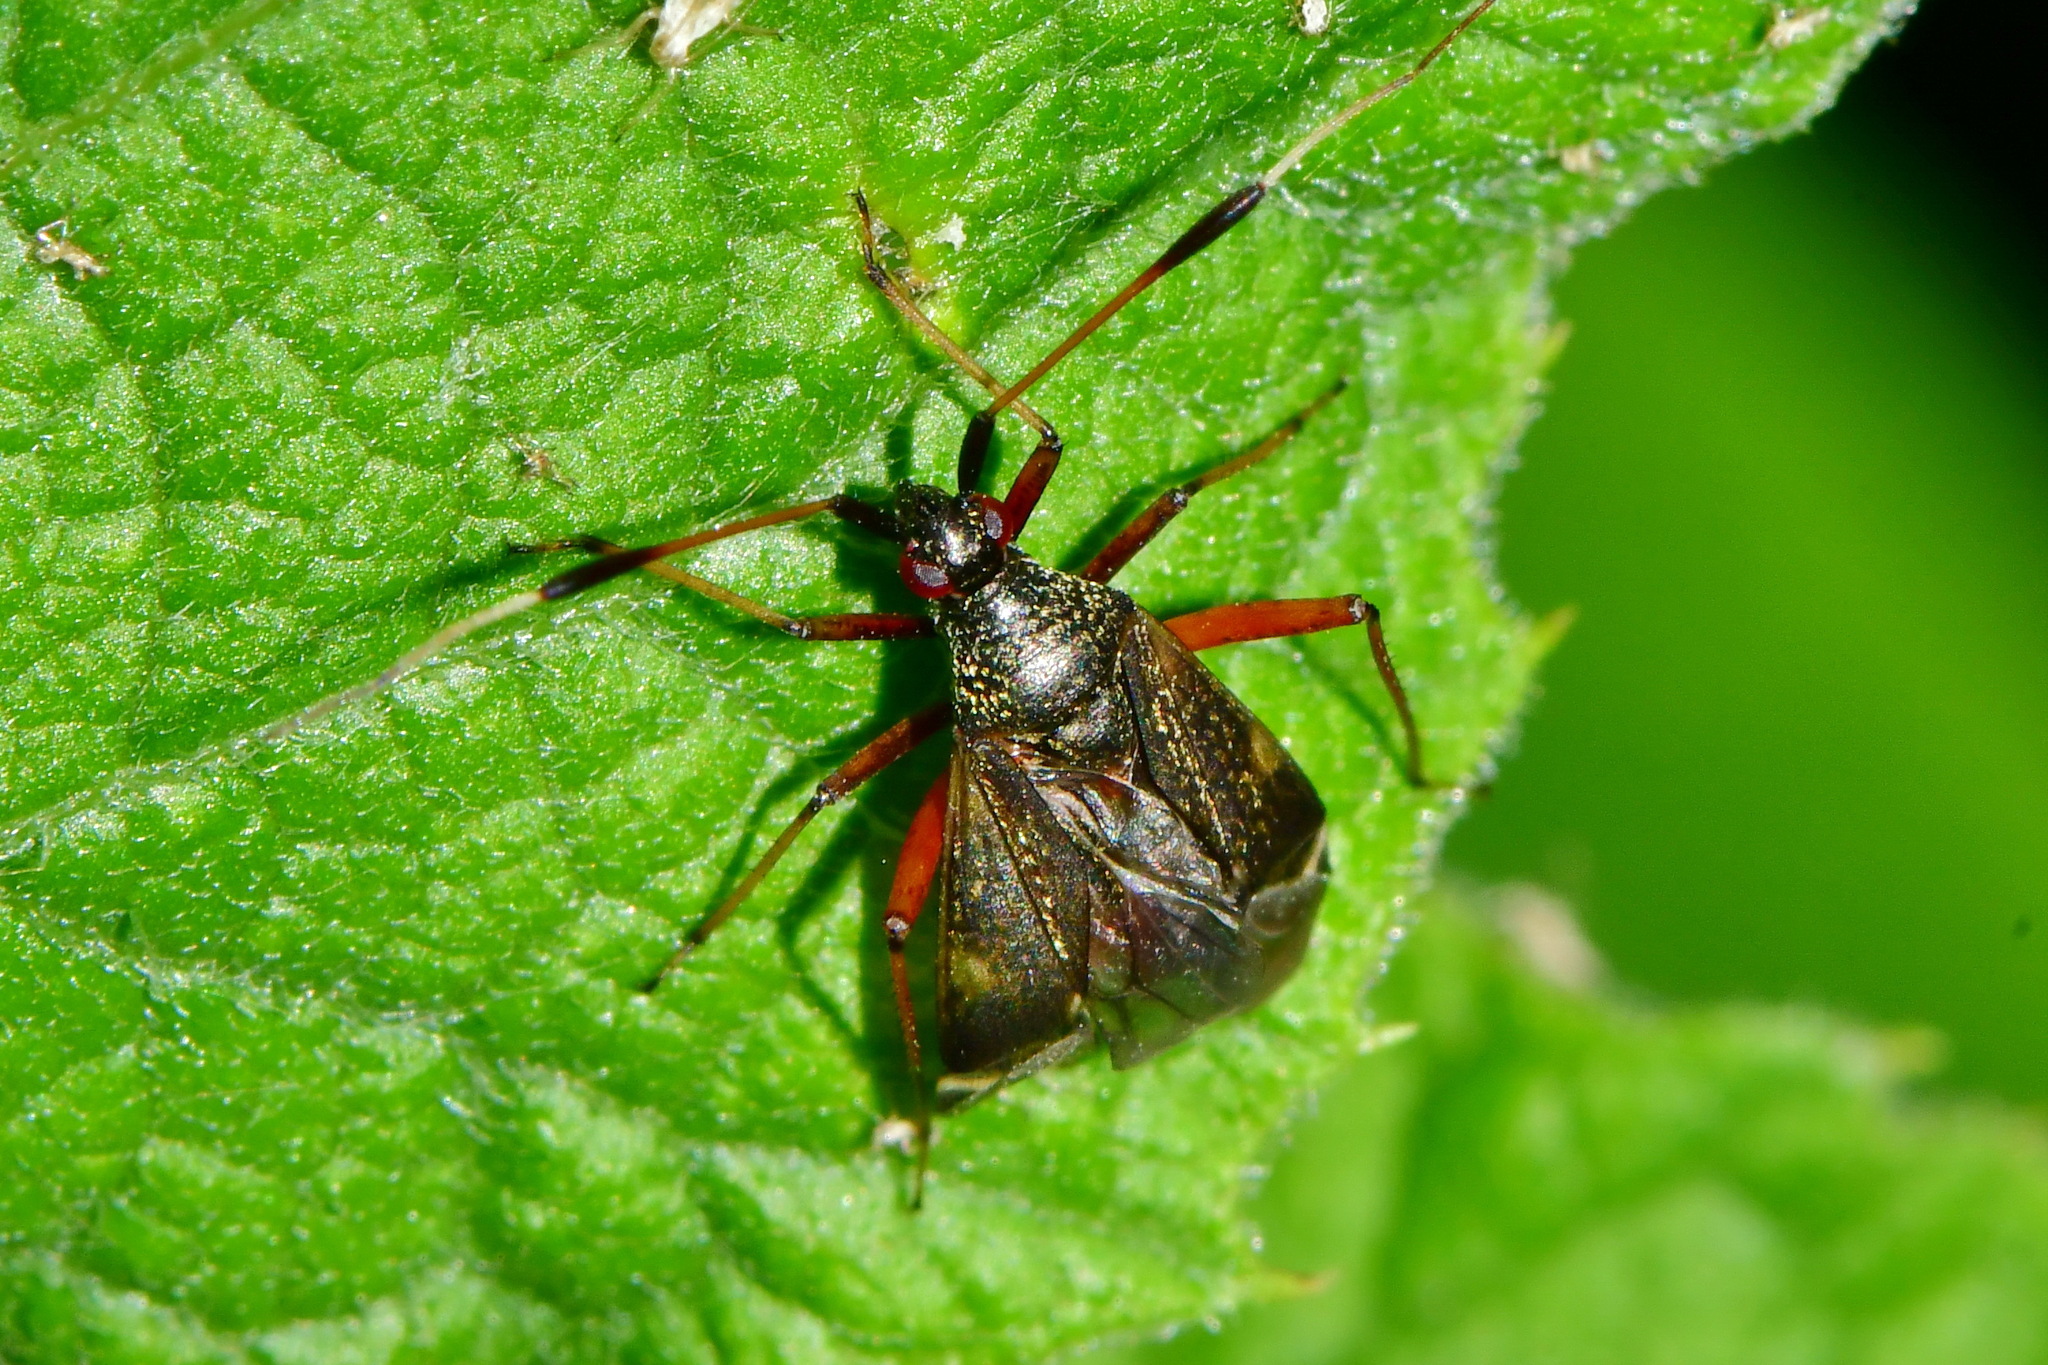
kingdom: Animalia
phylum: Arthropoda
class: Insecta
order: Hemiptera
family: Miridae
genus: Closterotomus
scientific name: Closterotomus biclavatus
